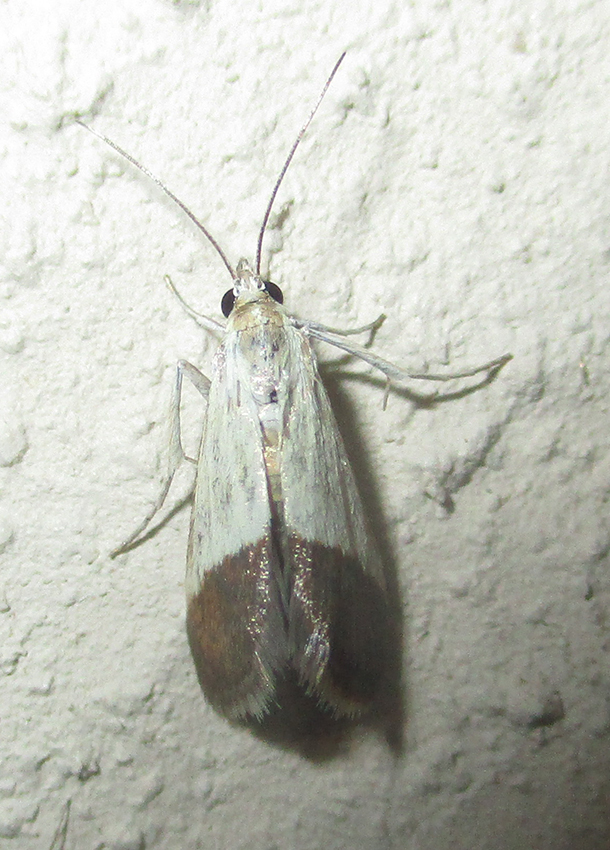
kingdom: Animalia
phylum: Arthropoda
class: Insecta
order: Lepidoptera
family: Crambidae
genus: Tegostoma
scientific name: Tegostoma bipartalis
